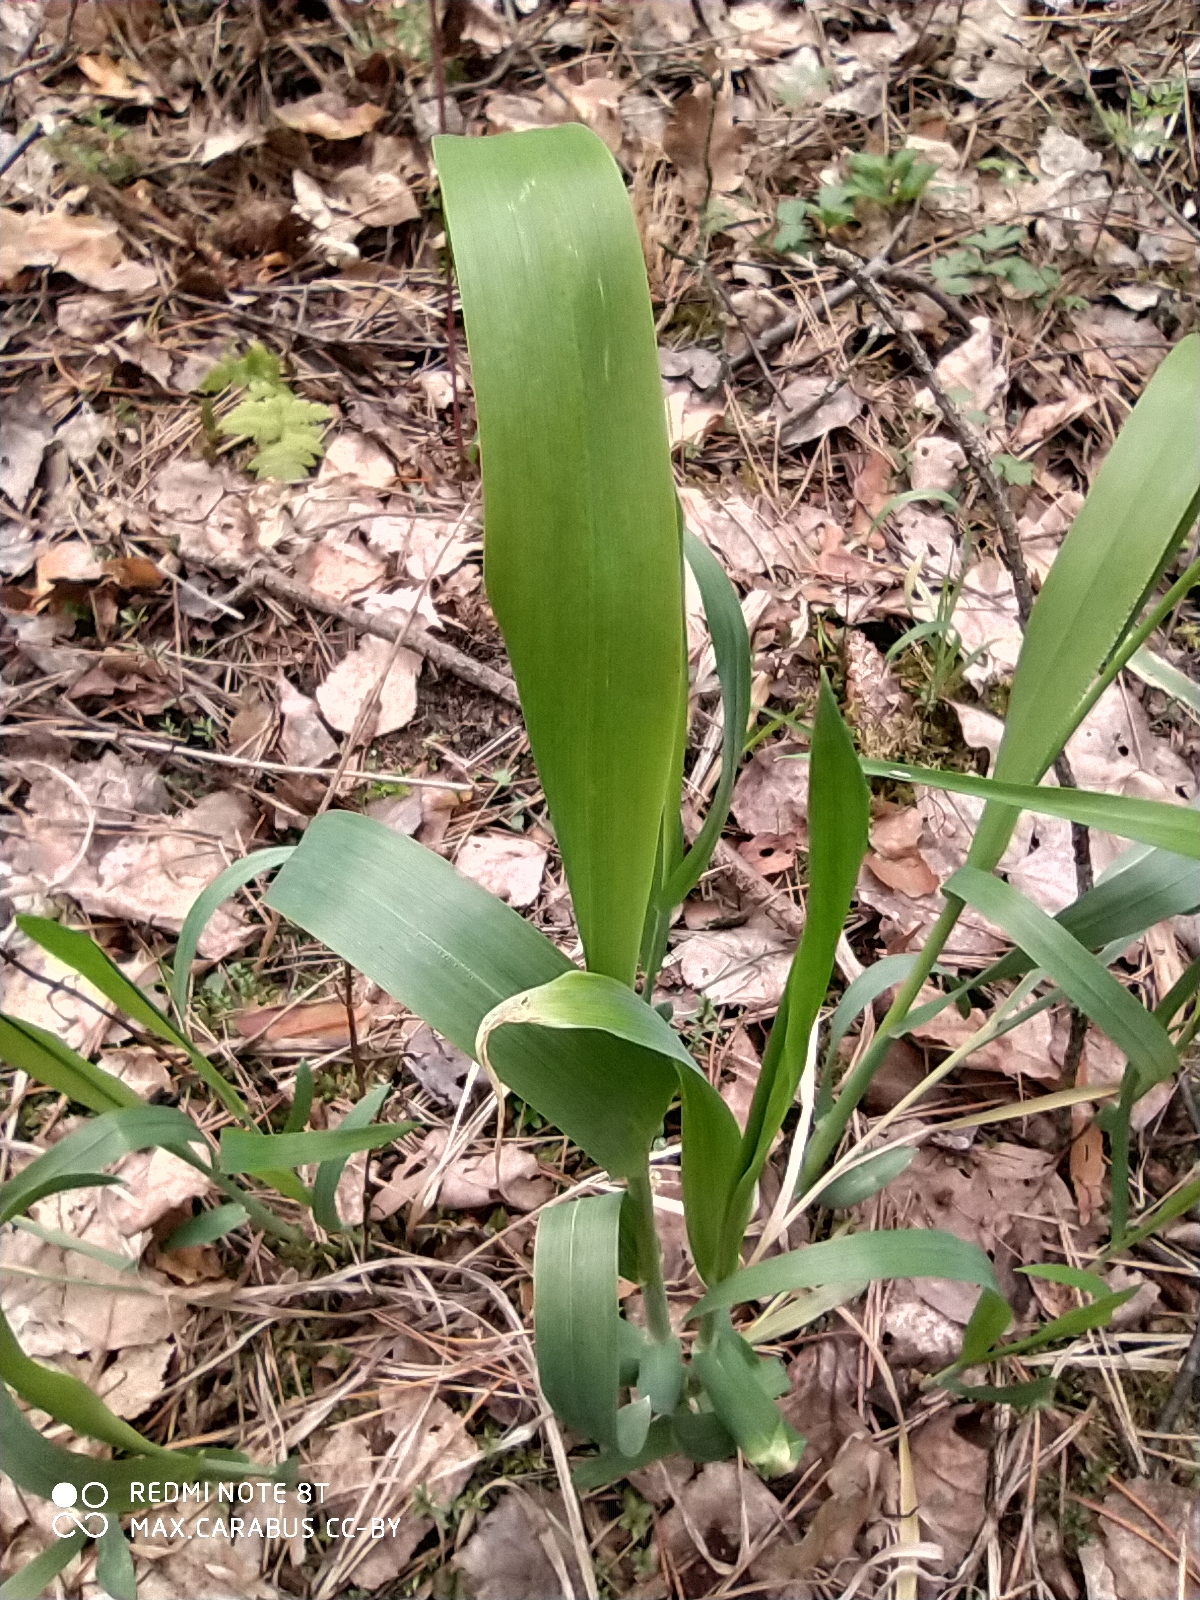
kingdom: Plantae
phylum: Tracheophyta
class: Liliopsida
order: Poales
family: Poaceae
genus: Milium
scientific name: Milium effusum
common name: Wood millet
